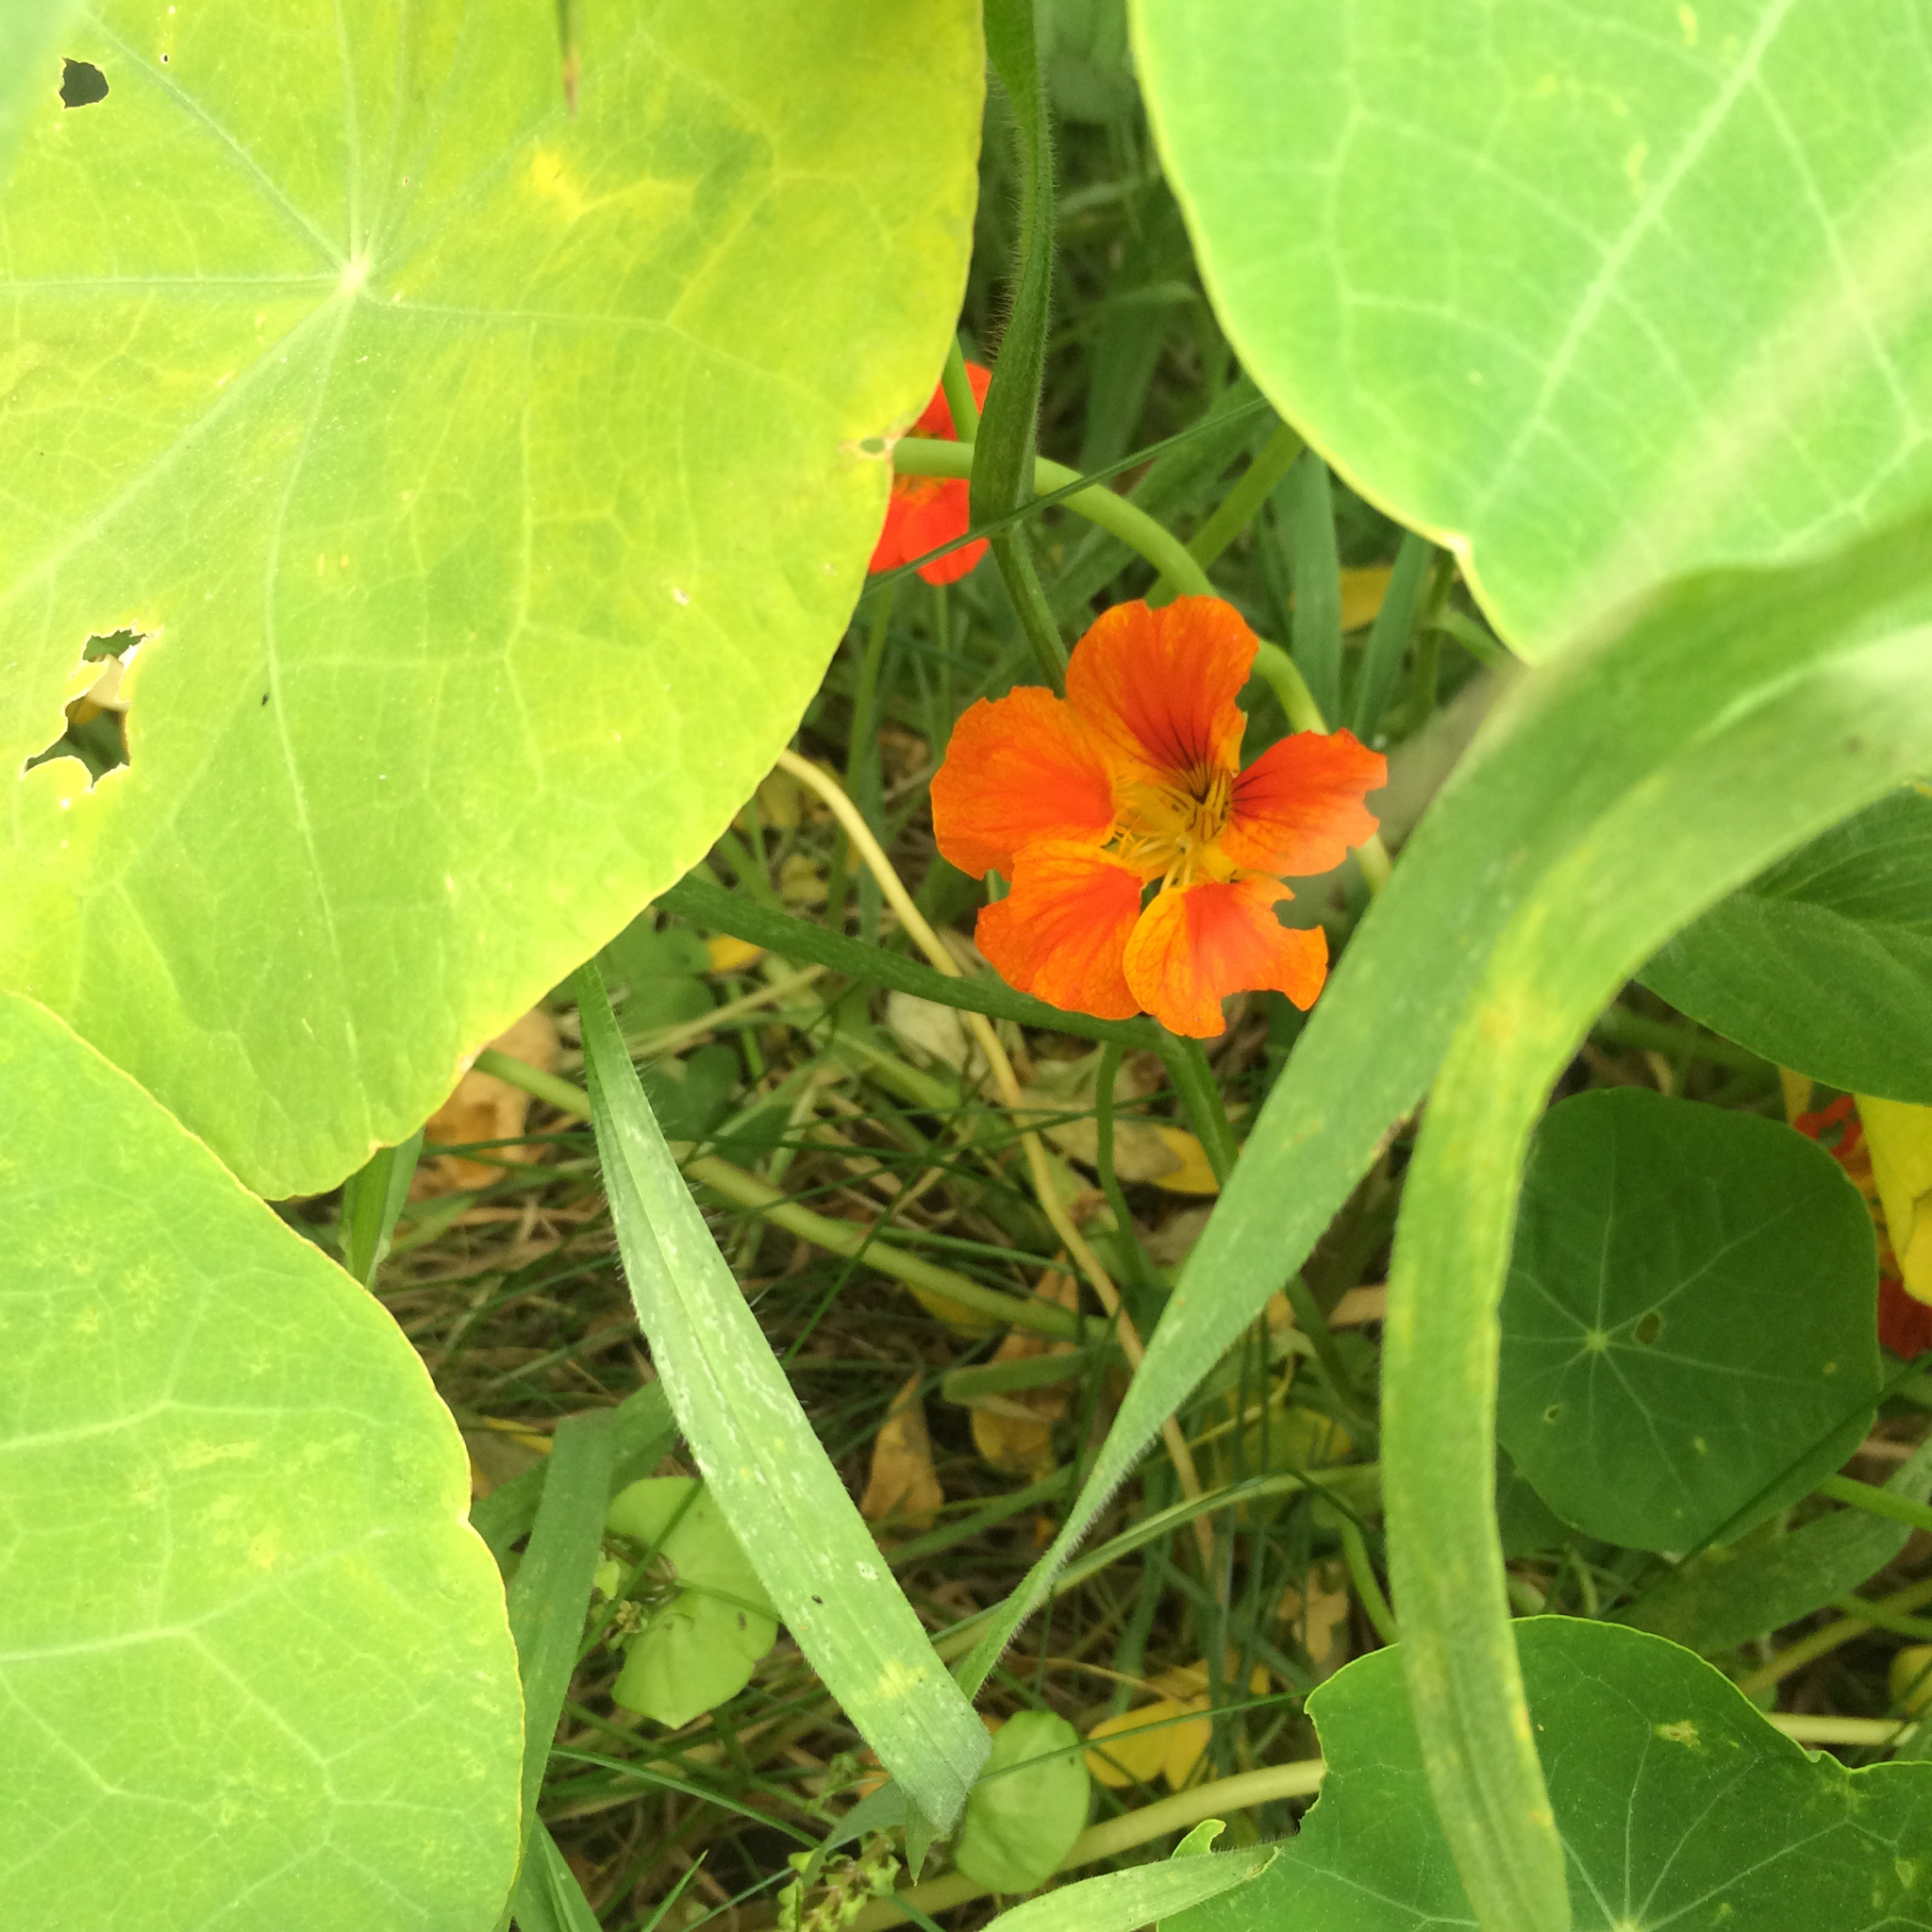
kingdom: Plantae
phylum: Tracheophyta
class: Magnoliopsida
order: Brassicales
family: Tropaeolaceae
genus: Tropaeolum
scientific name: Tropaeolum majus
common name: Nasturtium
